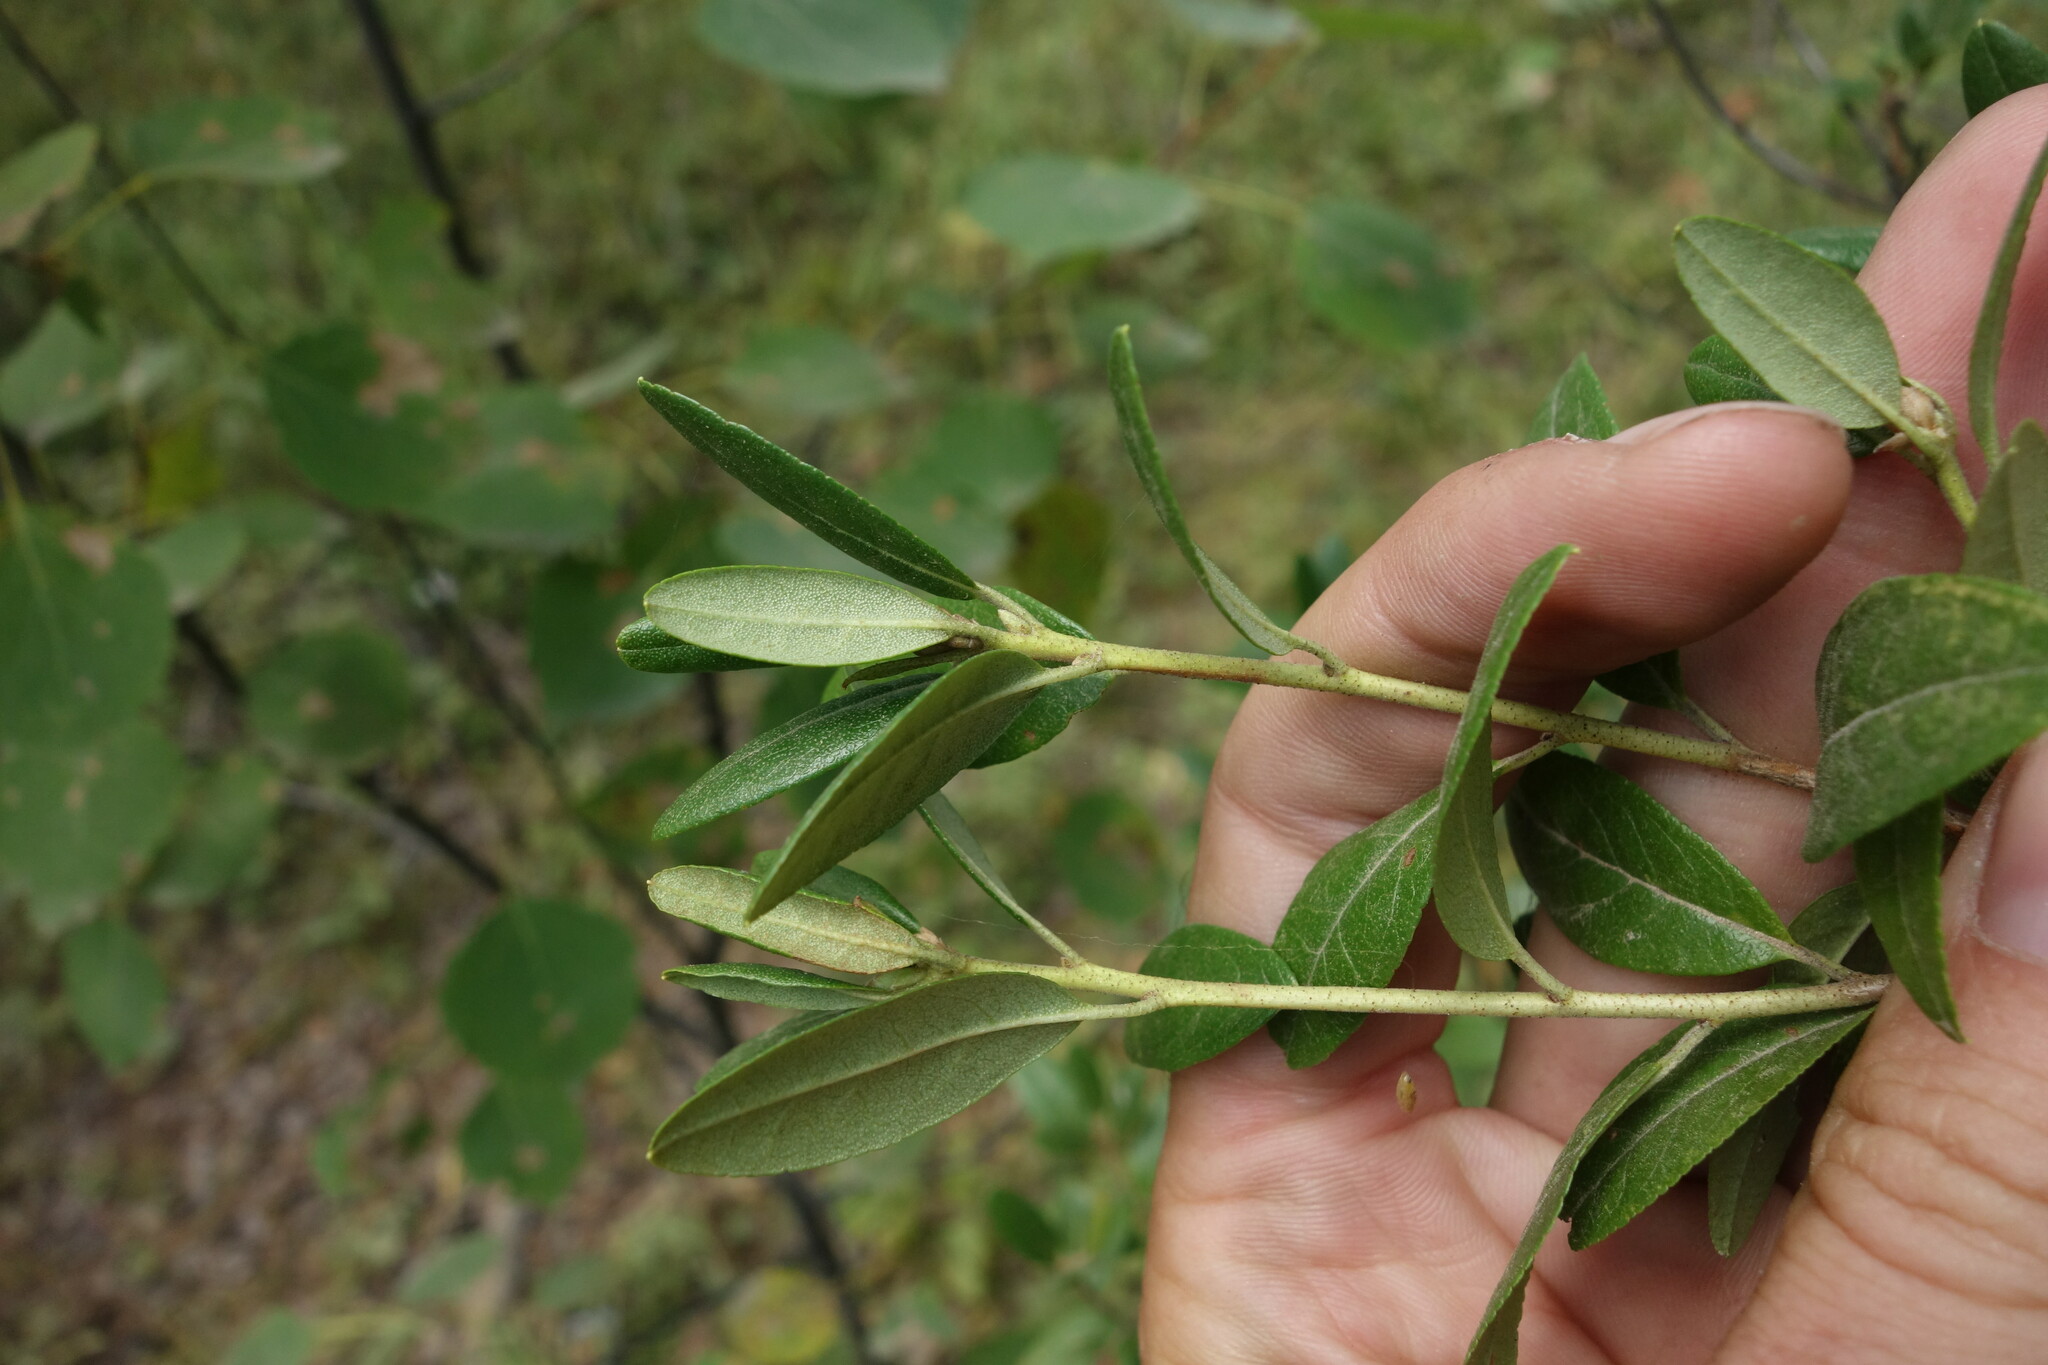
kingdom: Plantae
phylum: Tracheophyta
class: Magnoliopsida
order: Ericales
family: Ericaceae
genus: Rhododendron
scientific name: Rhododendron dauricum
